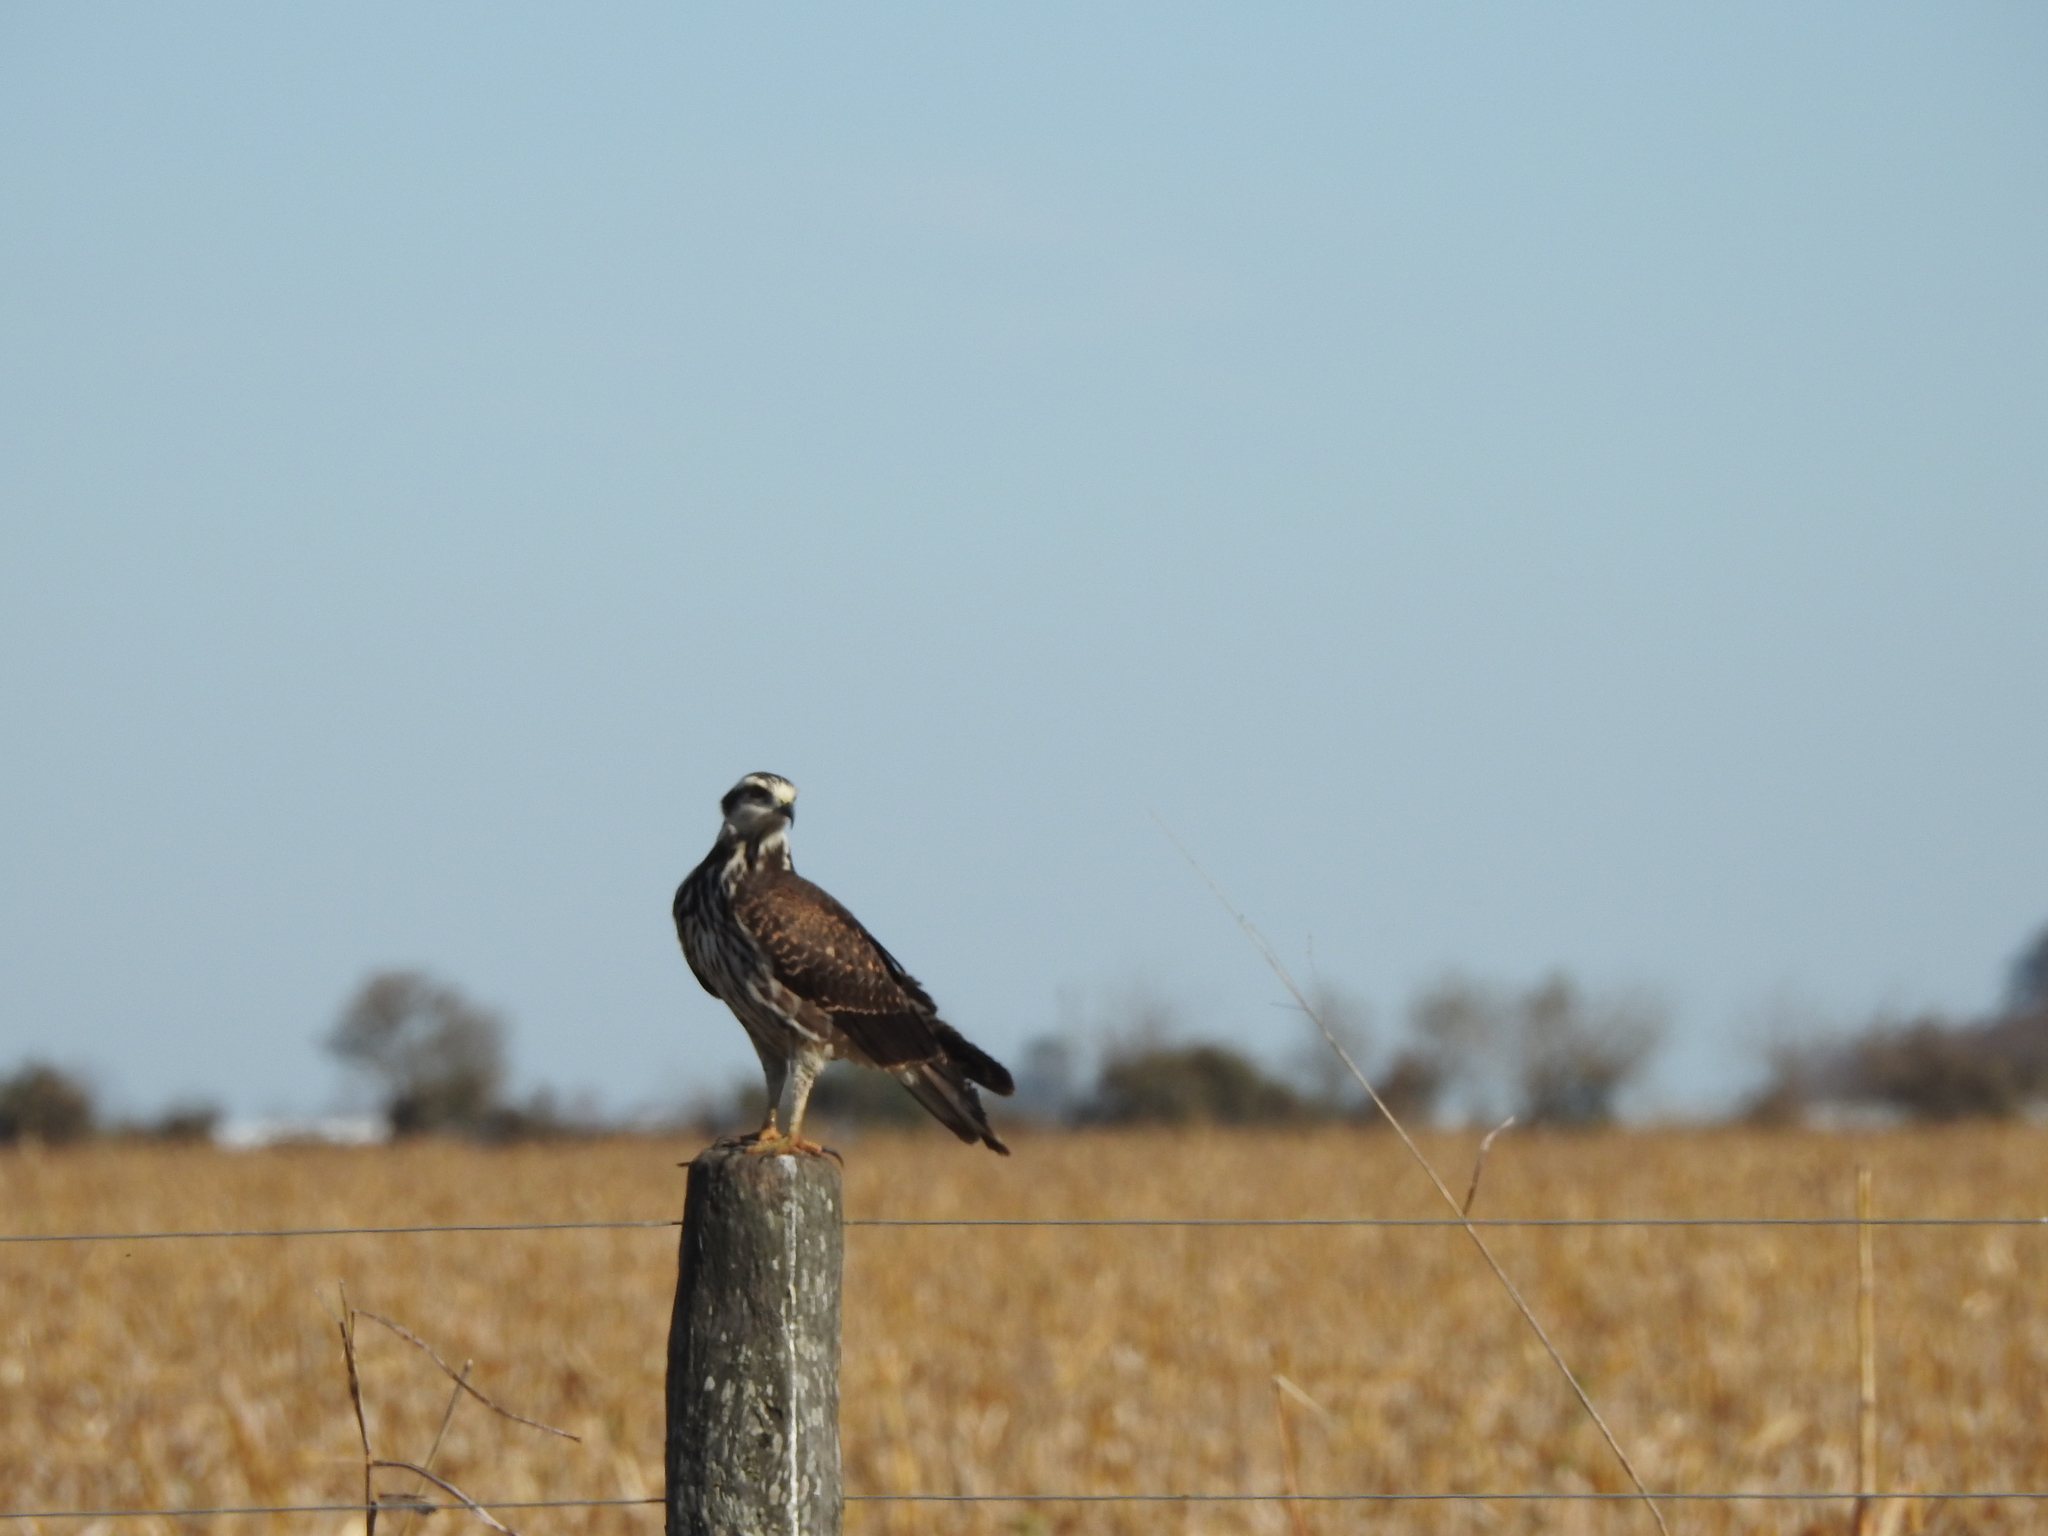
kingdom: Animalia
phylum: Chordata
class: Aves
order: Accipitriformes
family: Accipitridae
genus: Rostrhamus
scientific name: Rostrhamus sociabilis
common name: Snail kite
